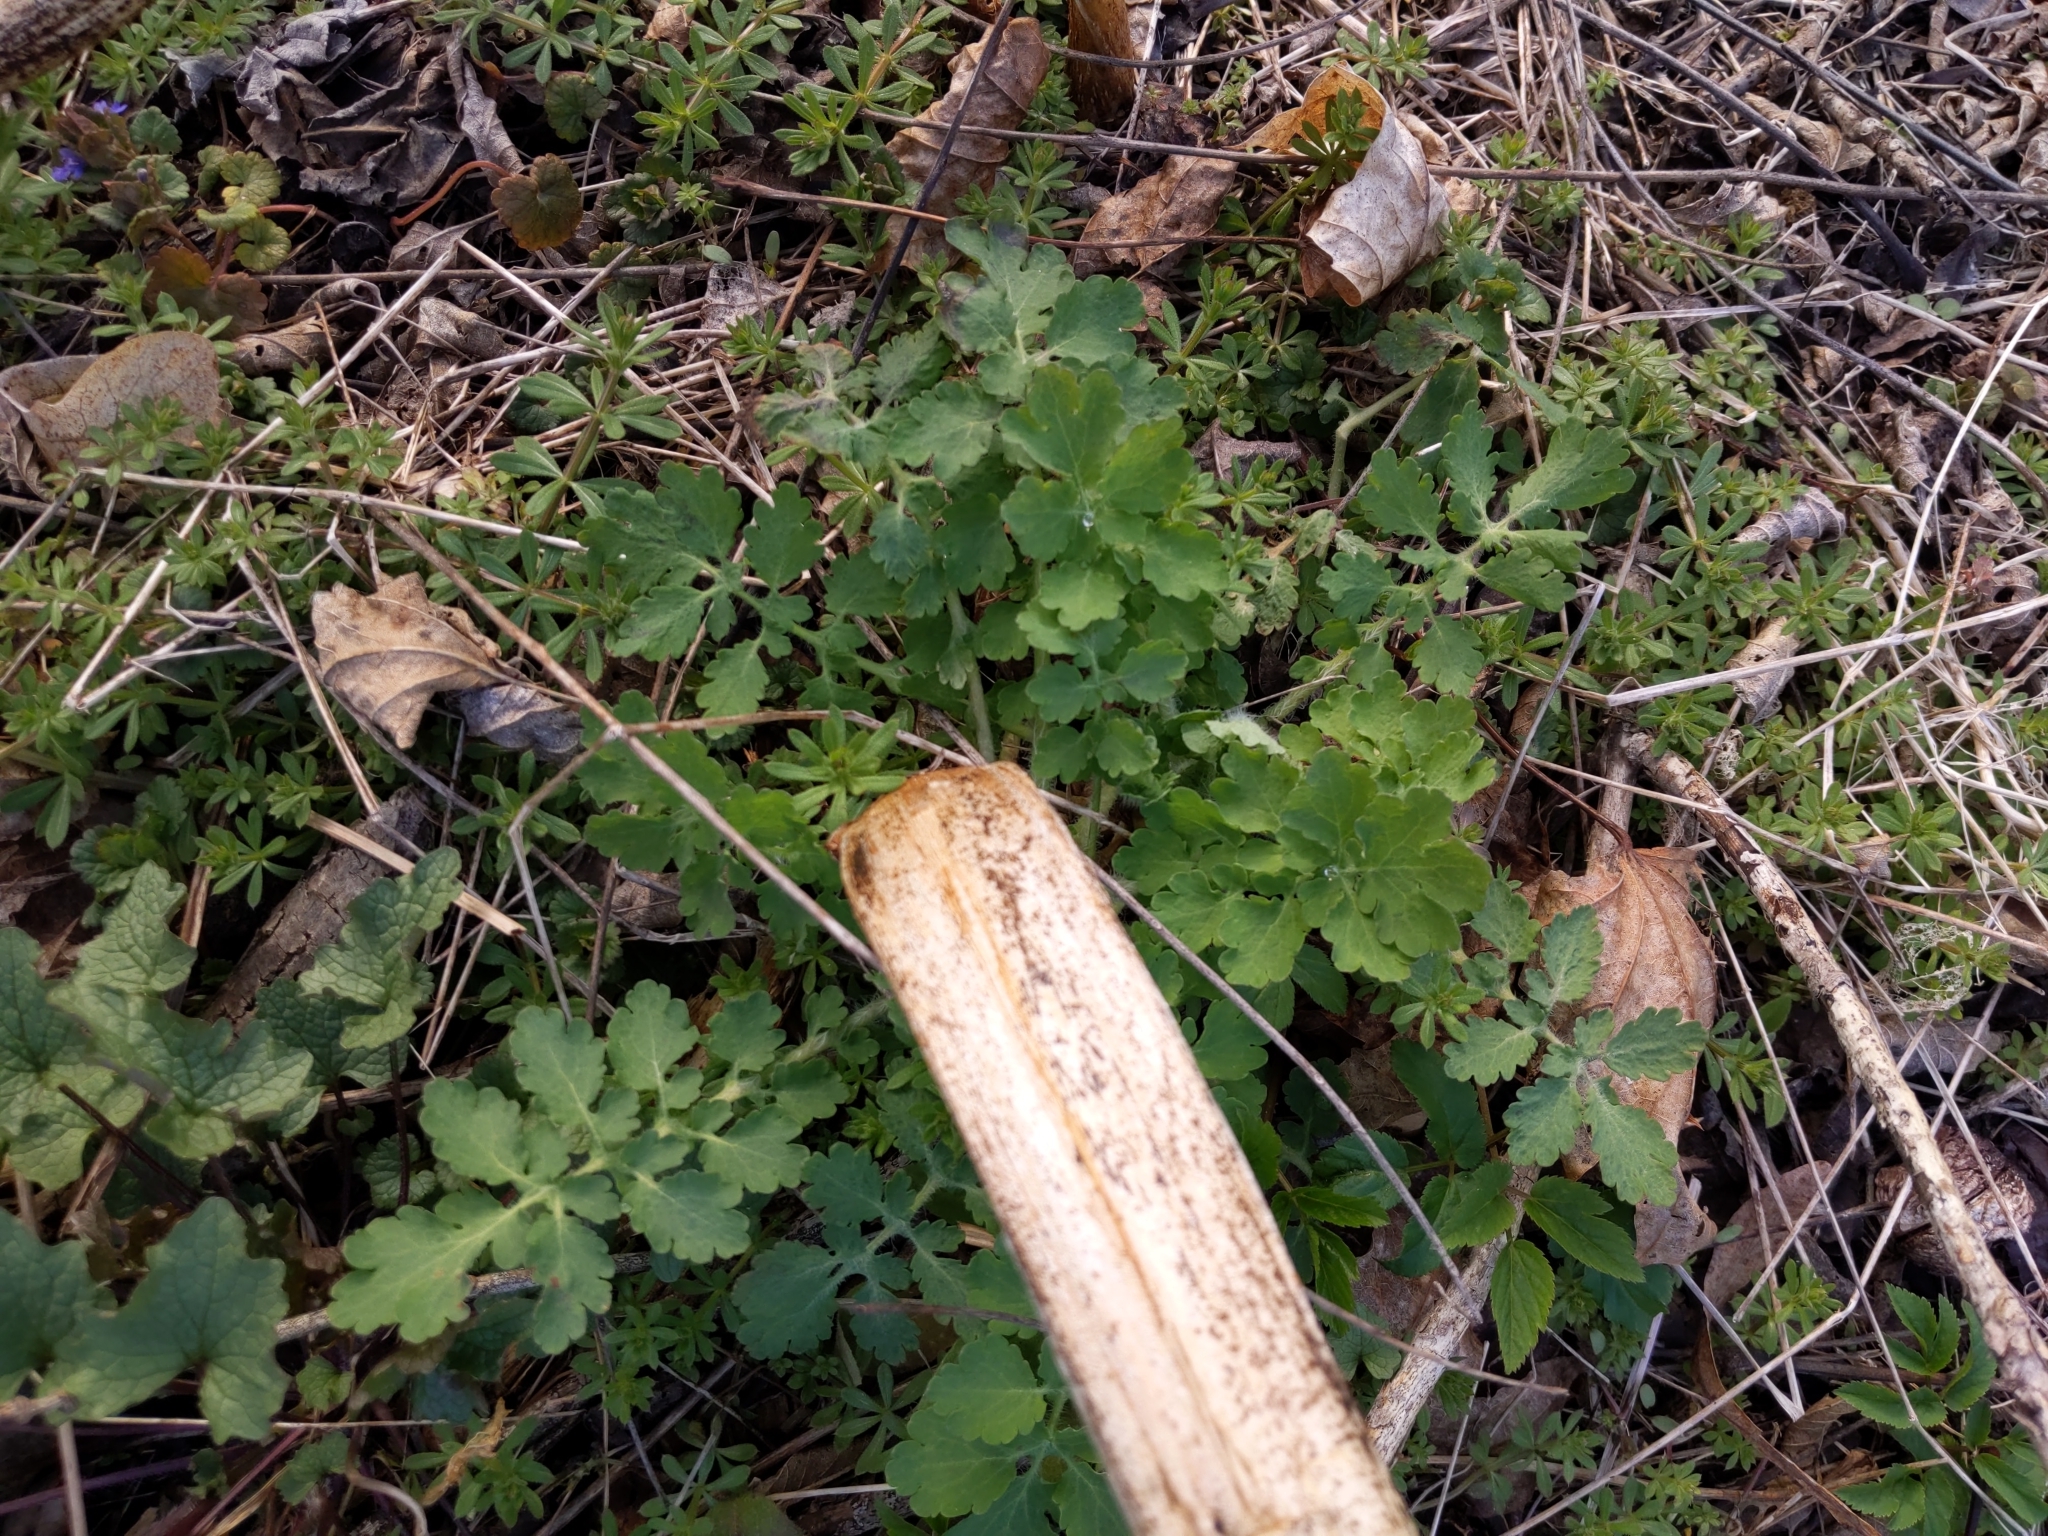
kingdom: Plantae
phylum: Tracheophyta
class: Magnoliopsida
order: Ranunculales
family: Papaveraceae
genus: Chelidonium
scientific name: Chelidonium majus
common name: Greater celandine
